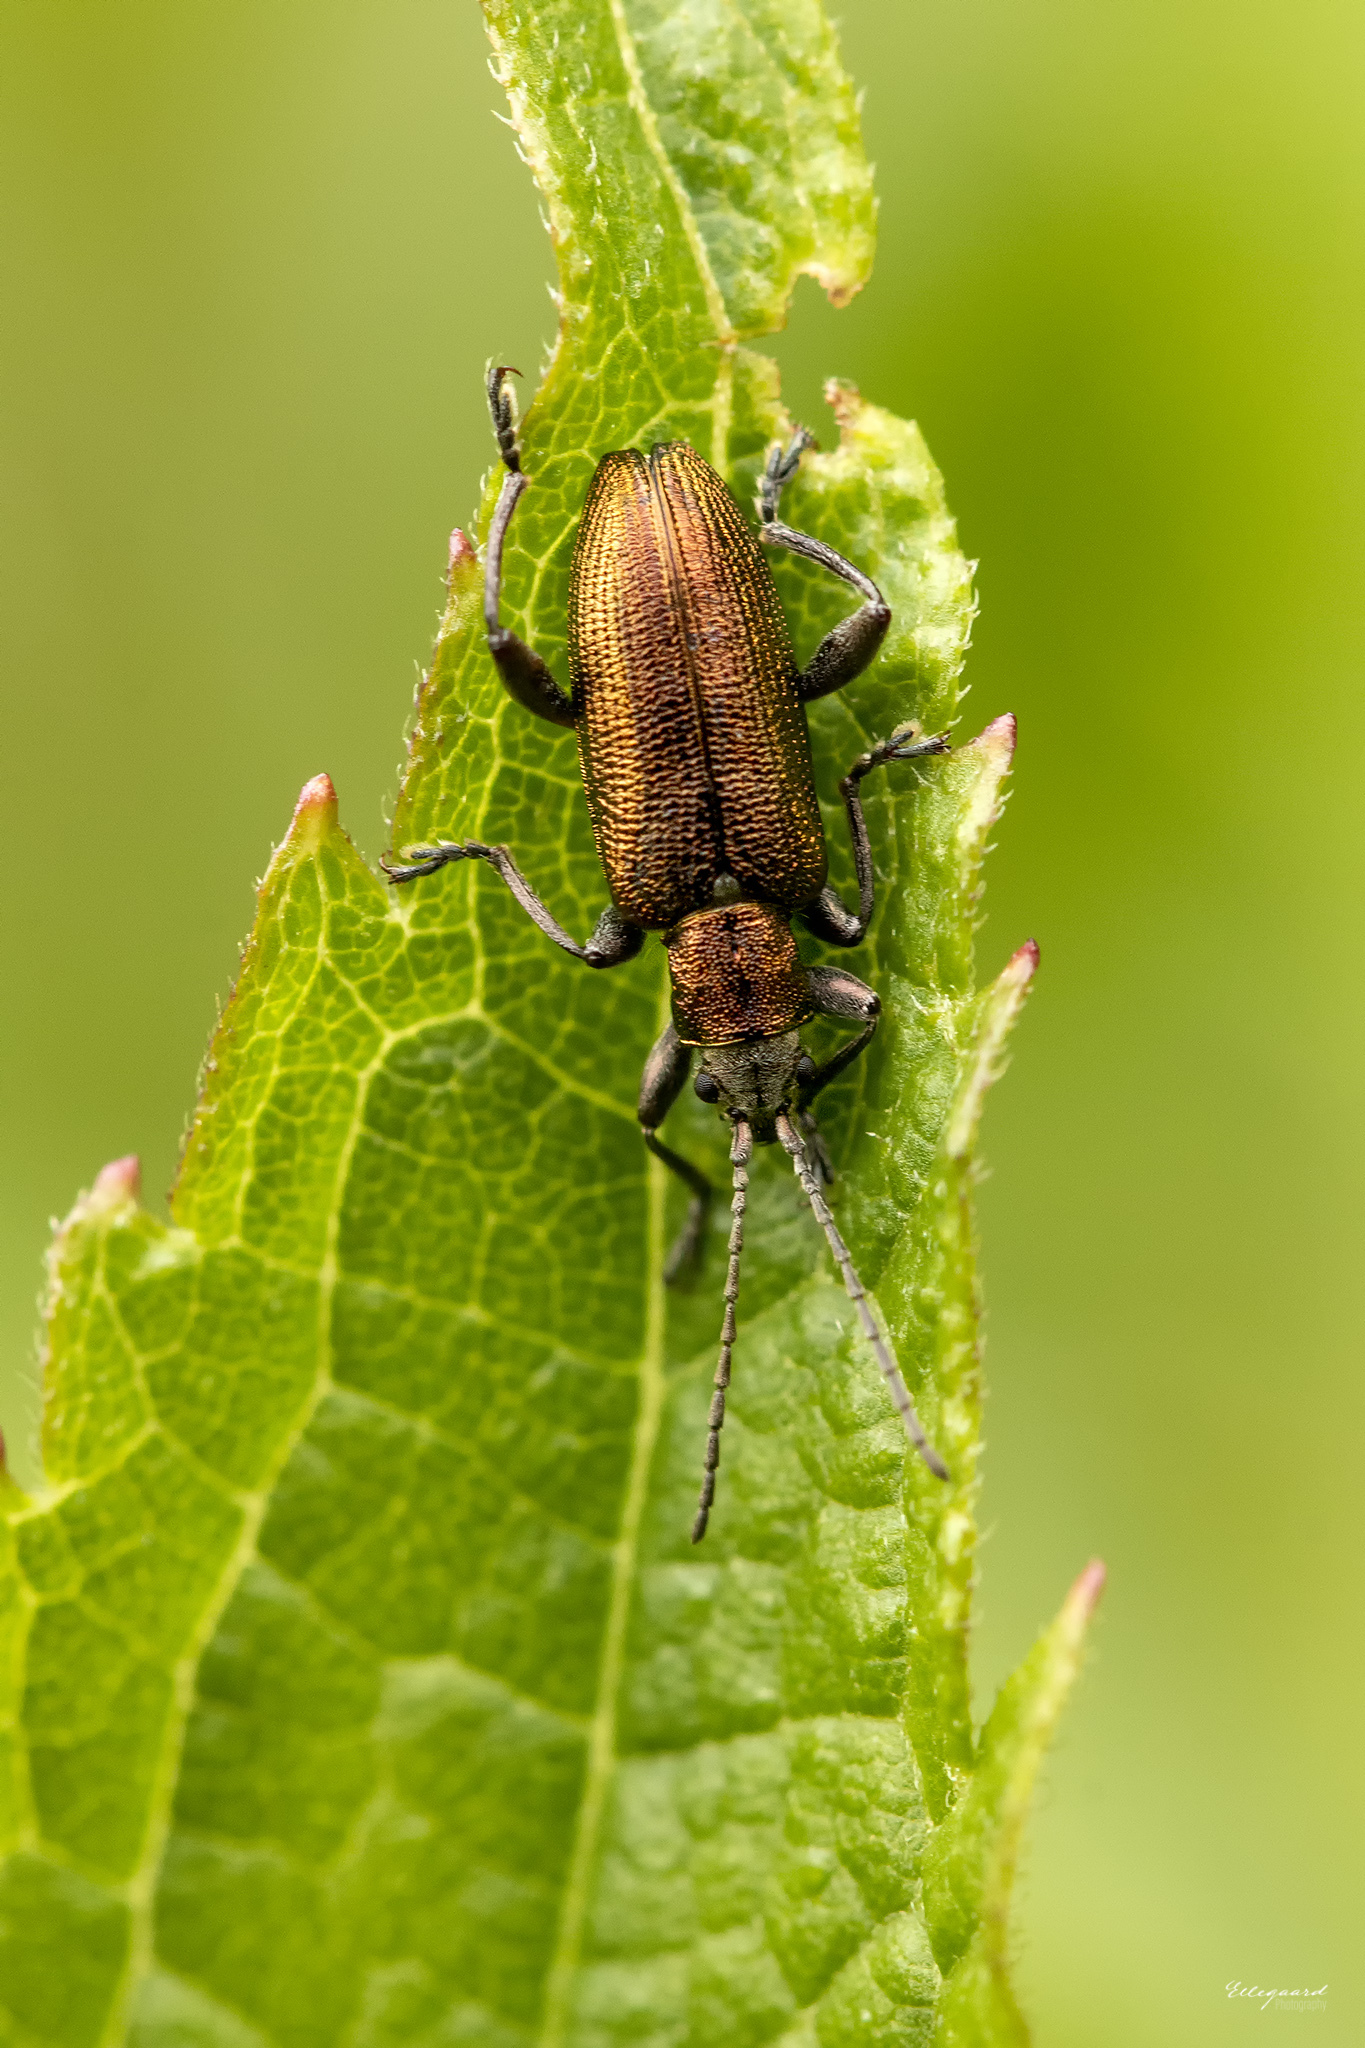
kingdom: Animalia
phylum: Arthropoda
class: Insecta
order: Coleoptera
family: Chrysomelidae
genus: Donacia
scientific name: Donacia semicuprea
